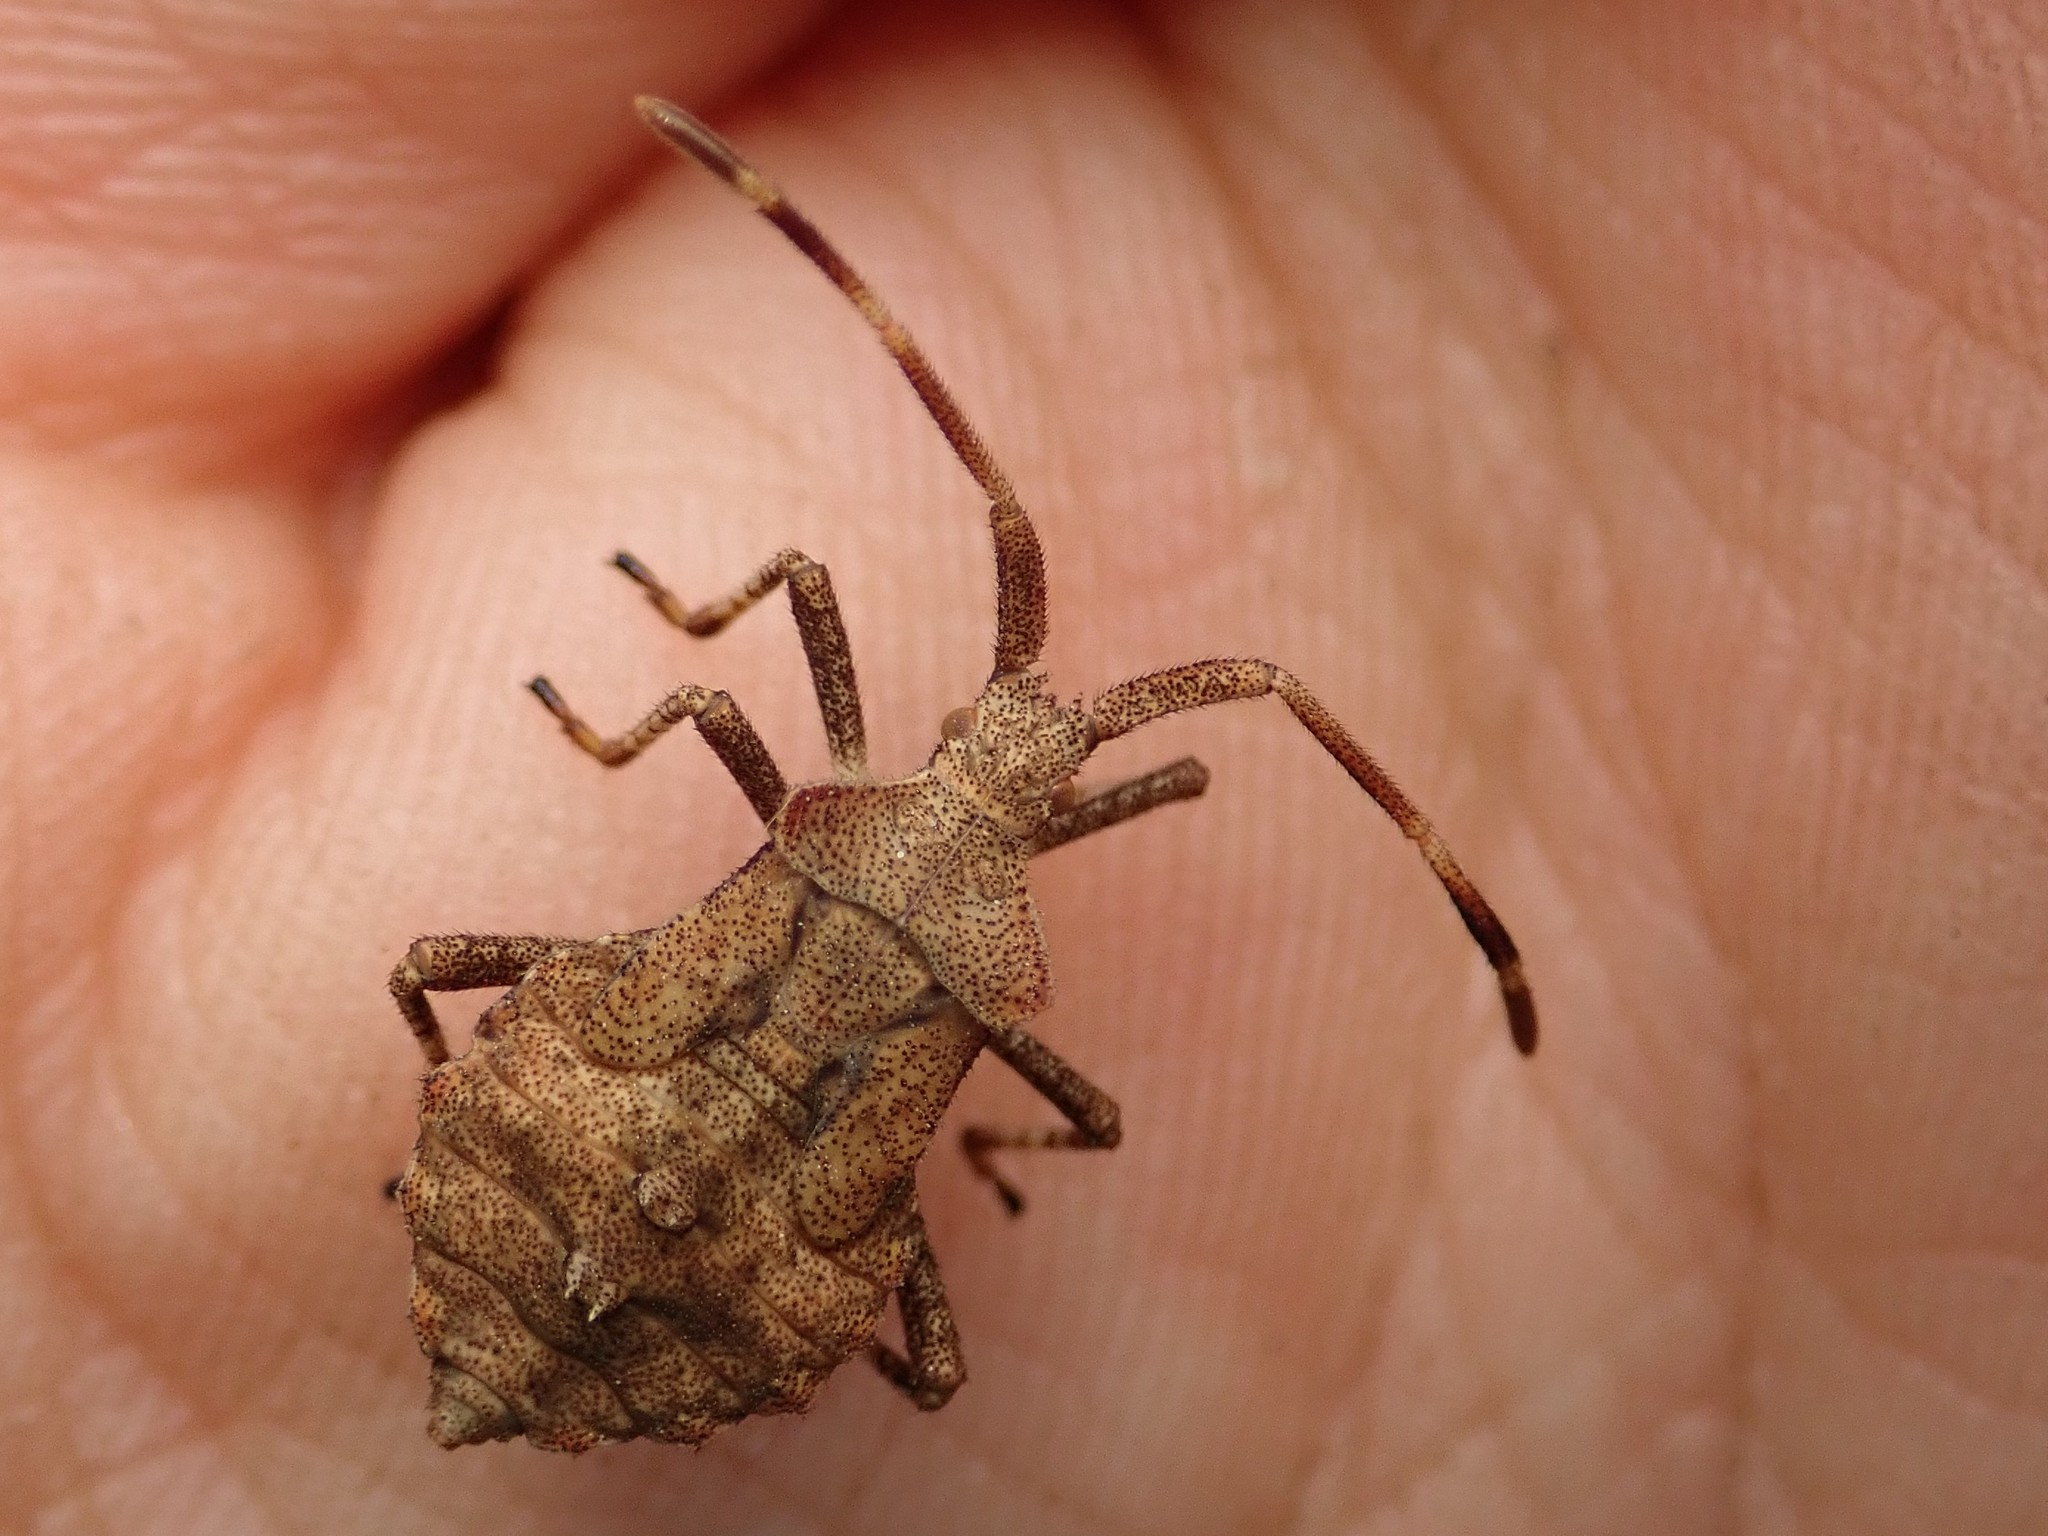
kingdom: Animalia
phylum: Arthropoda
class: Insecta
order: Hemiptera
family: Coreidae
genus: Coreus
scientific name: Coreus marginatus
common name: Dock bug
